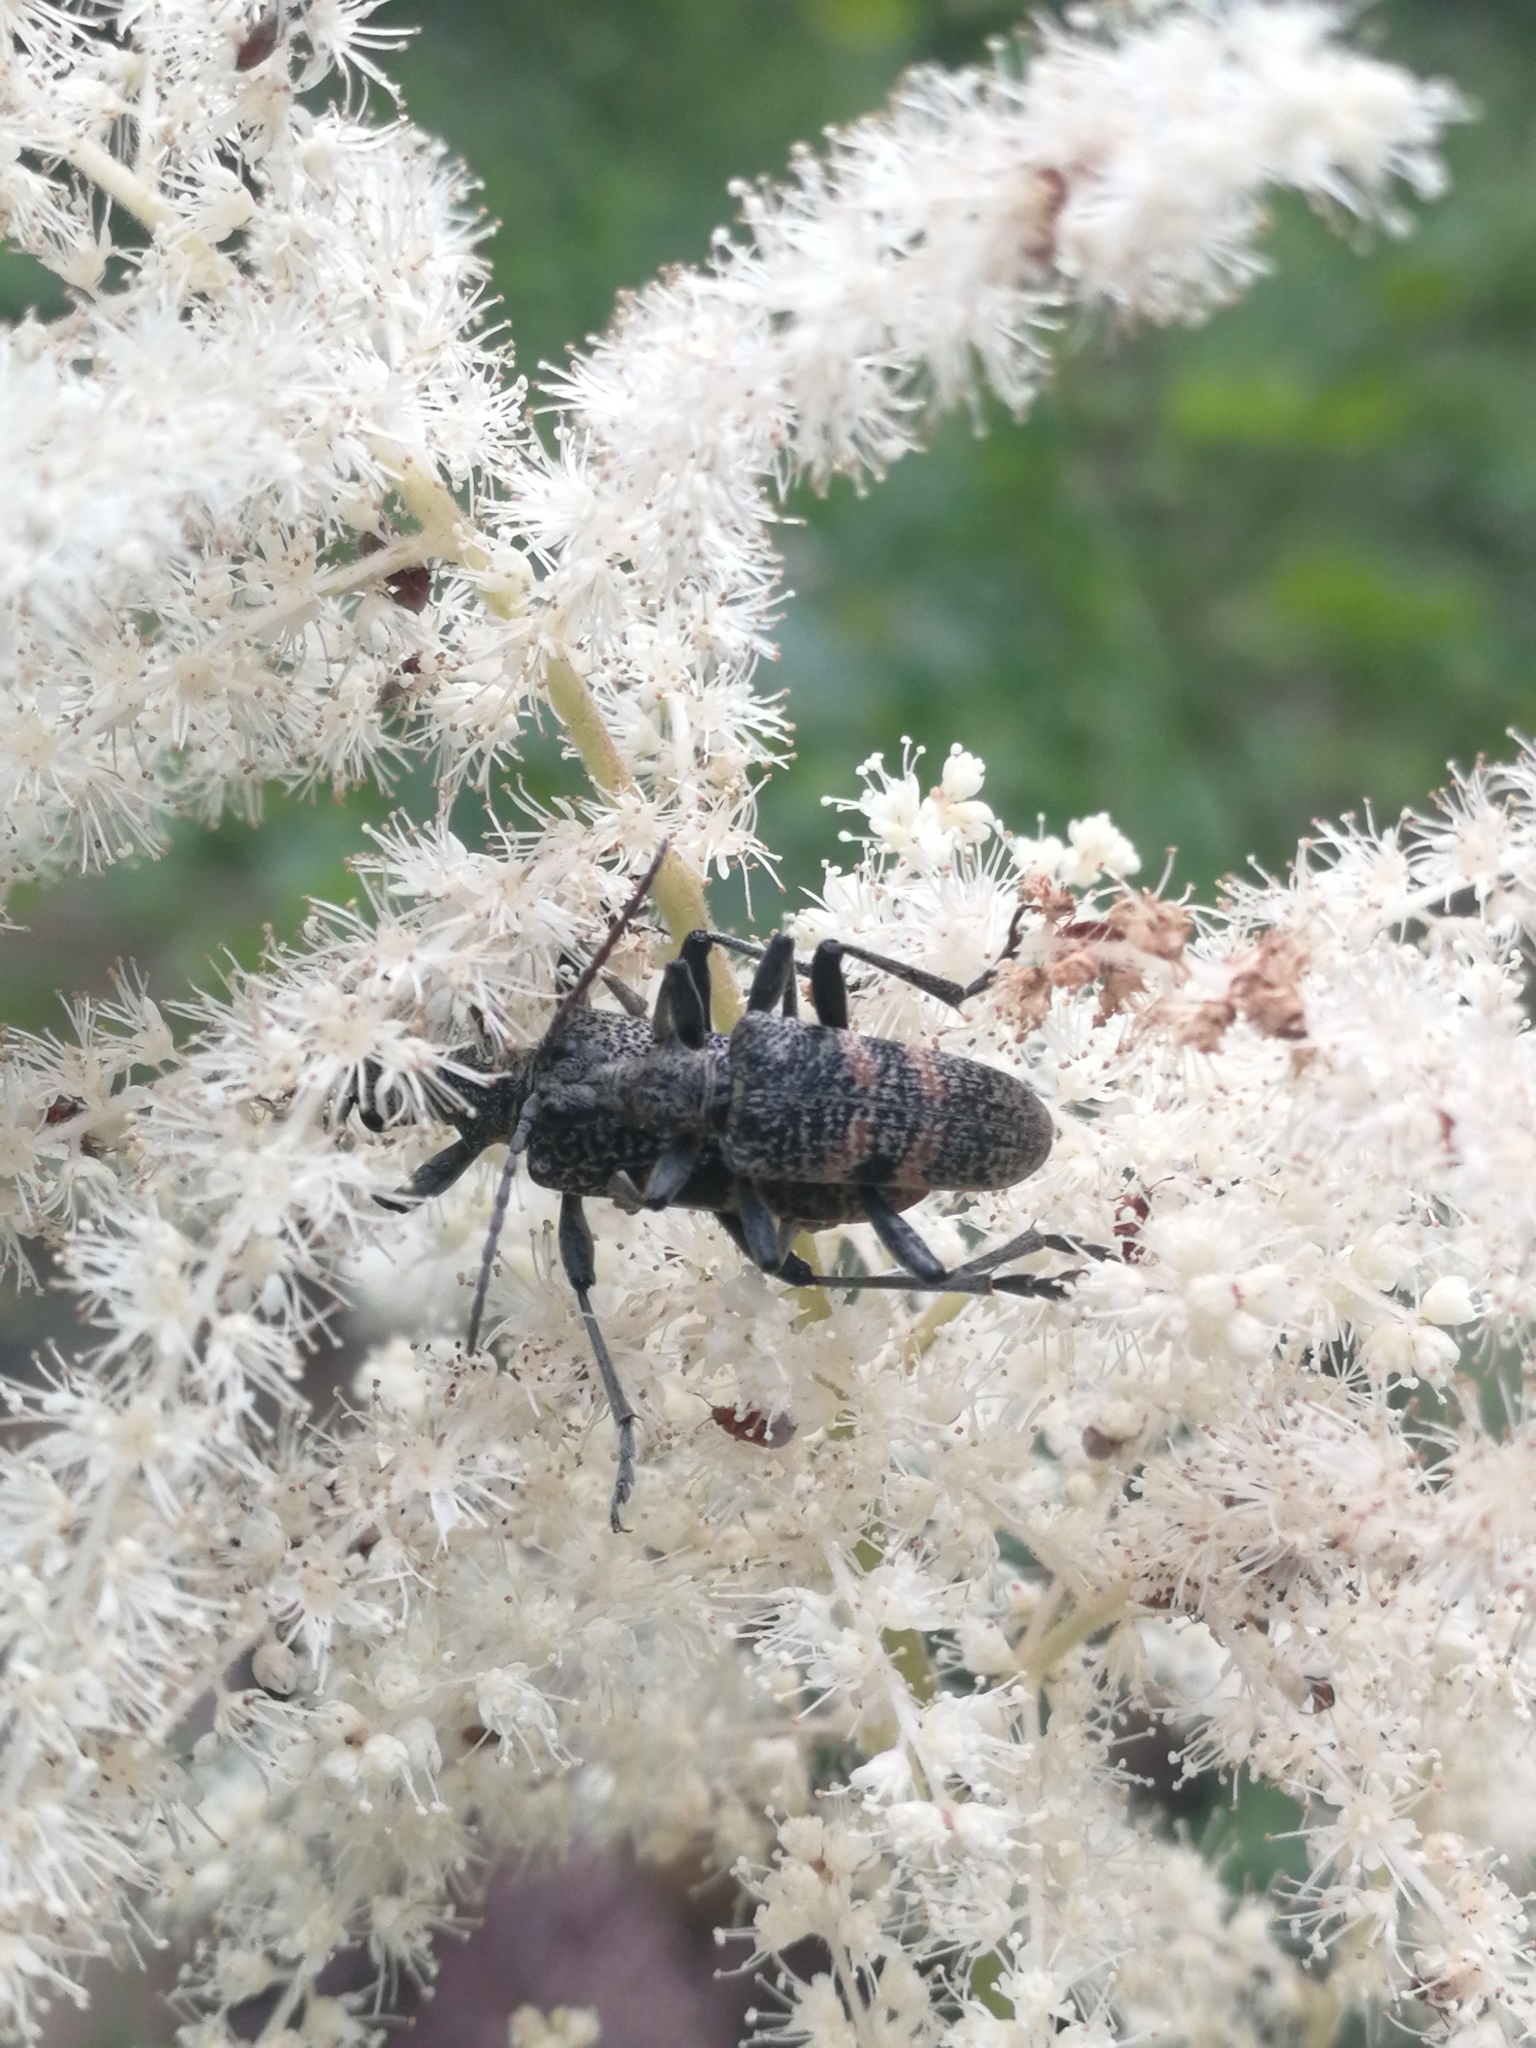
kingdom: Animalia
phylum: Arthropoda
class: Insecta
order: Coleoptera
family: Cerambycidae
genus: Rhagium
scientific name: Rhagium mordax
